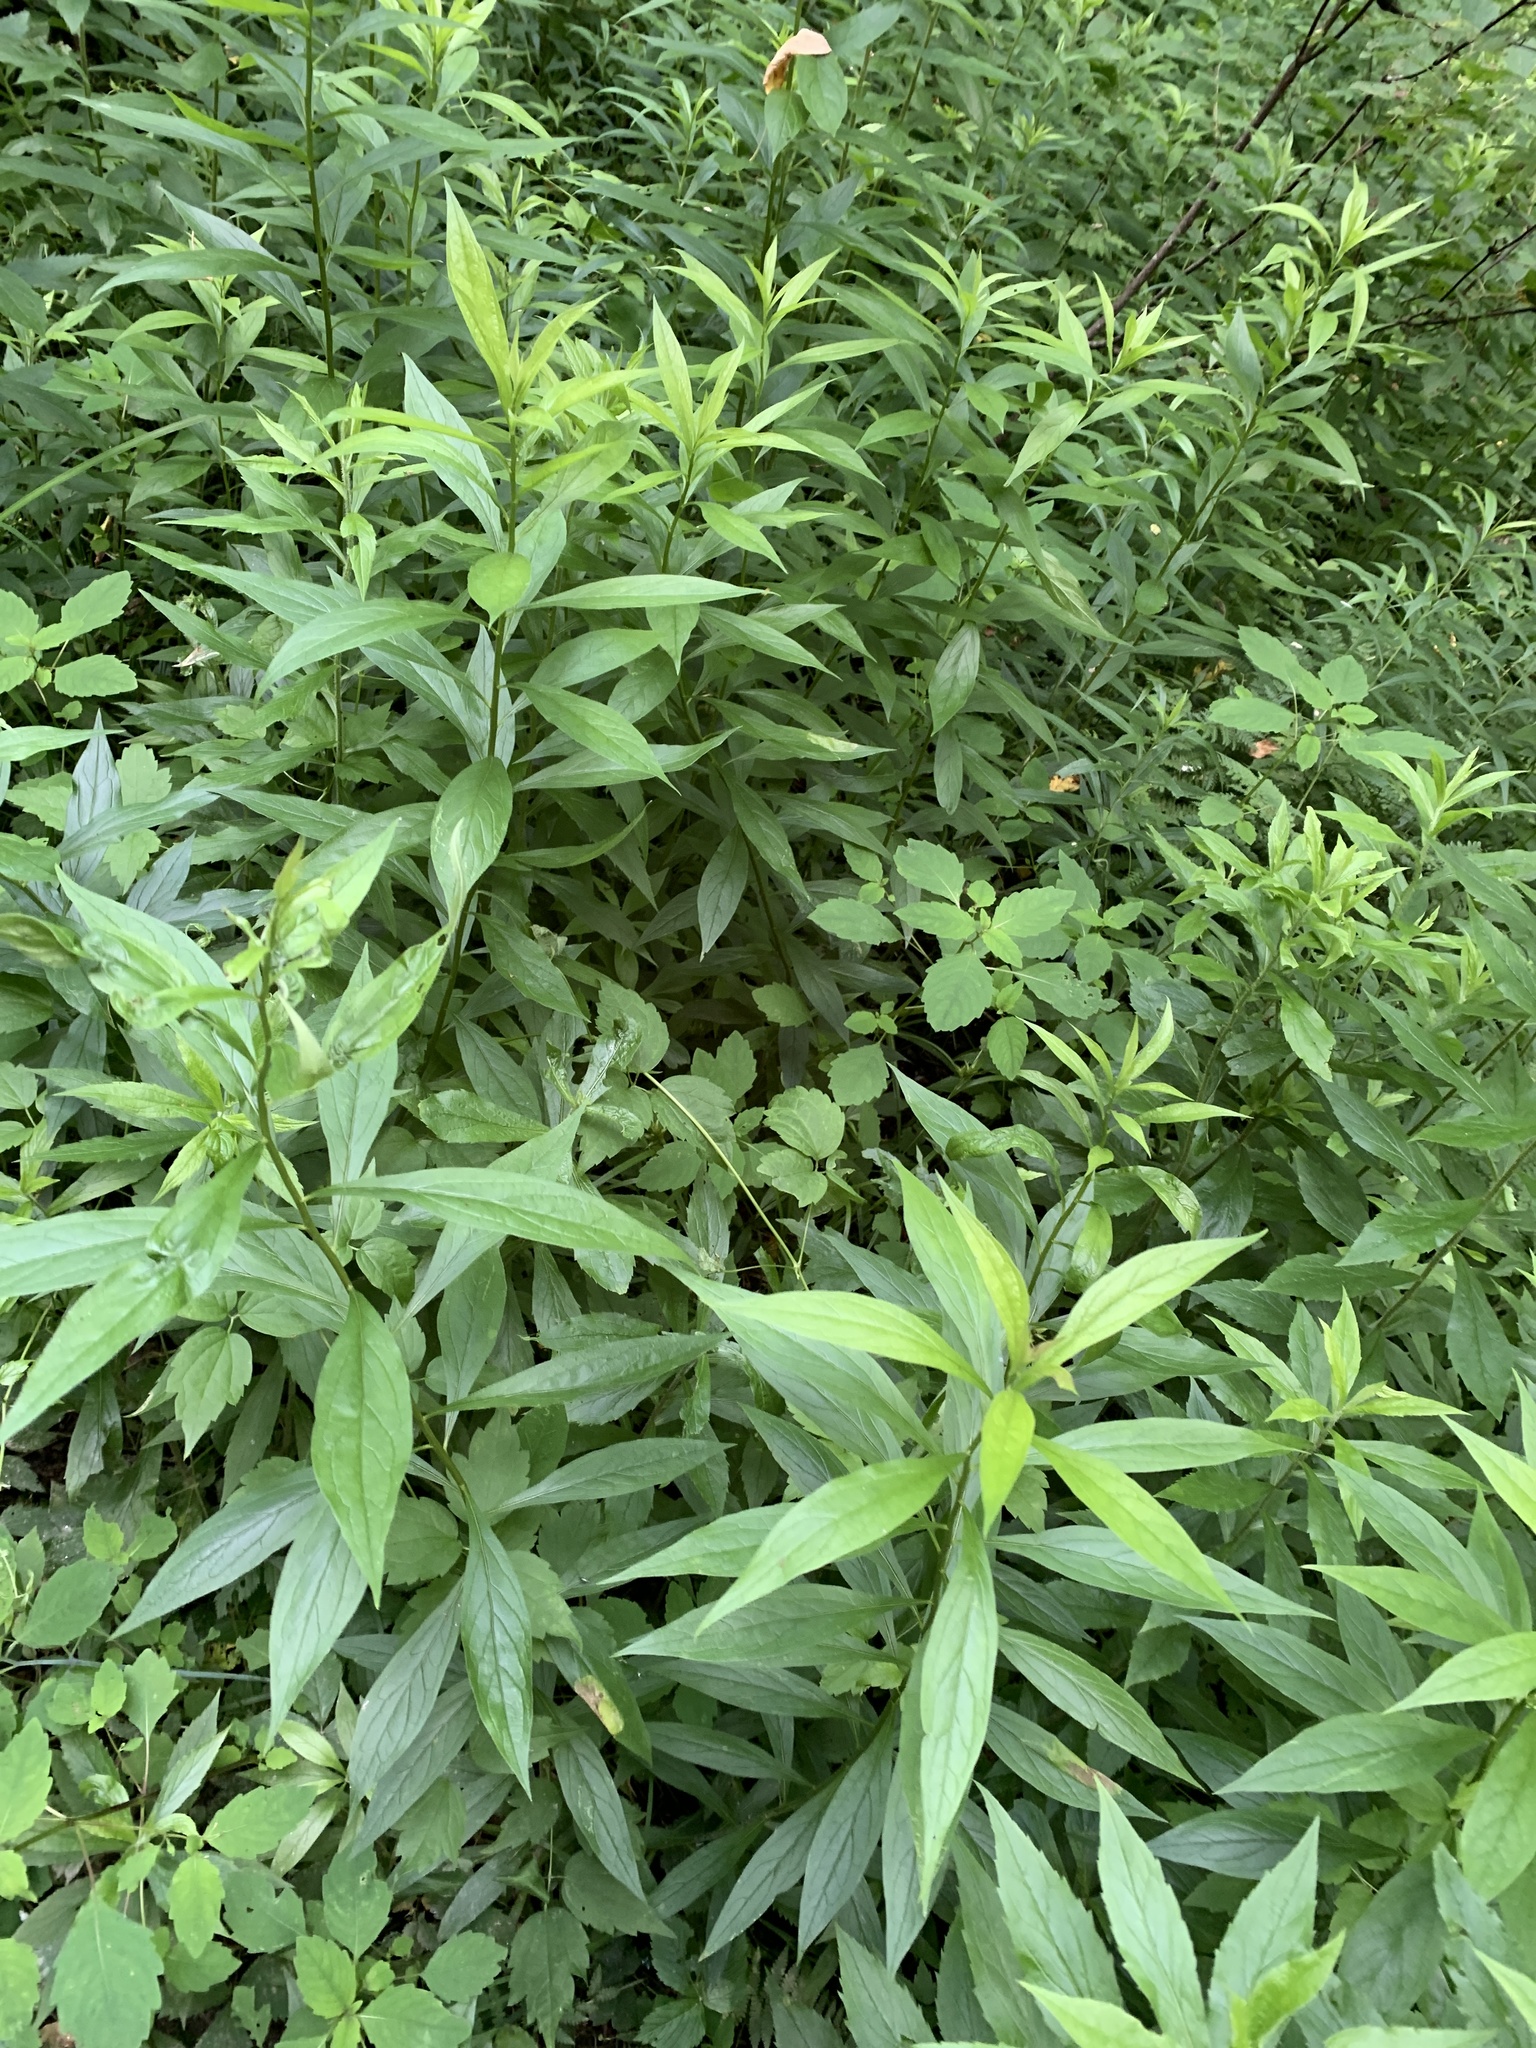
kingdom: Plantae
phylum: Tracheophyta
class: Magnoliopsida
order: Asterales
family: Asteraceae
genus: Doellingeria
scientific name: Doellingeria umbellata
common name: Flat-top white aster
